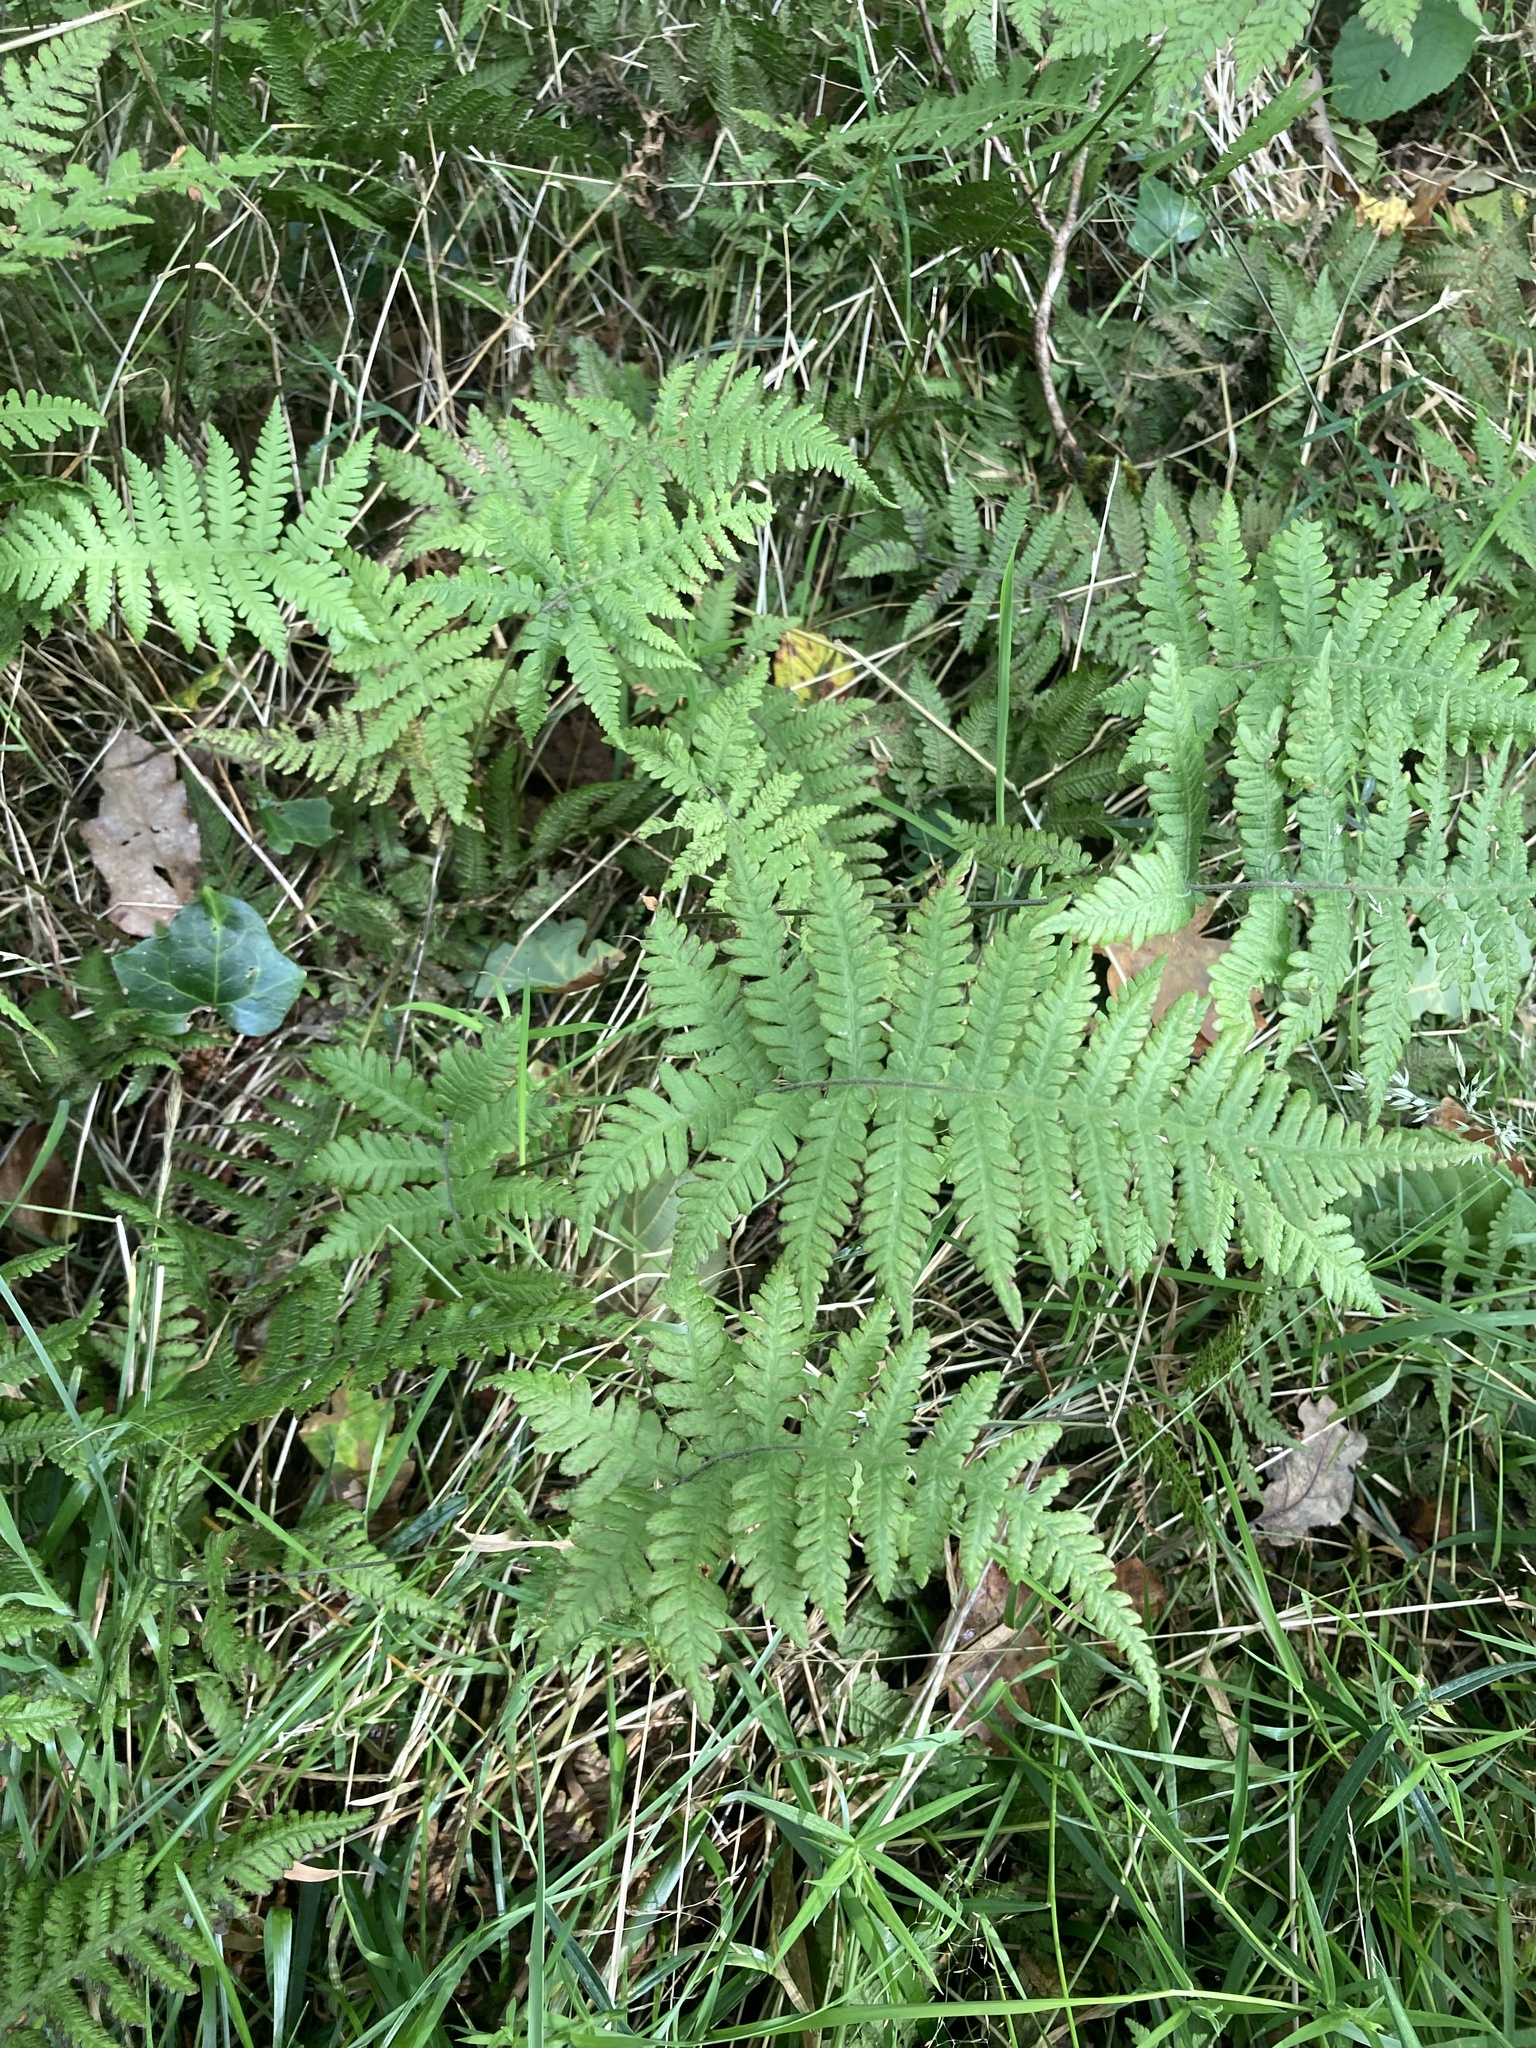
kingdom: Plantae
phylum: Tracheophyta
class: Polypodiopsida
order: Polypodiales
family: Thelypteridaceae
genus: Phegopteris
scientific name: Phegopteris connectilis
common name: Beech fern
